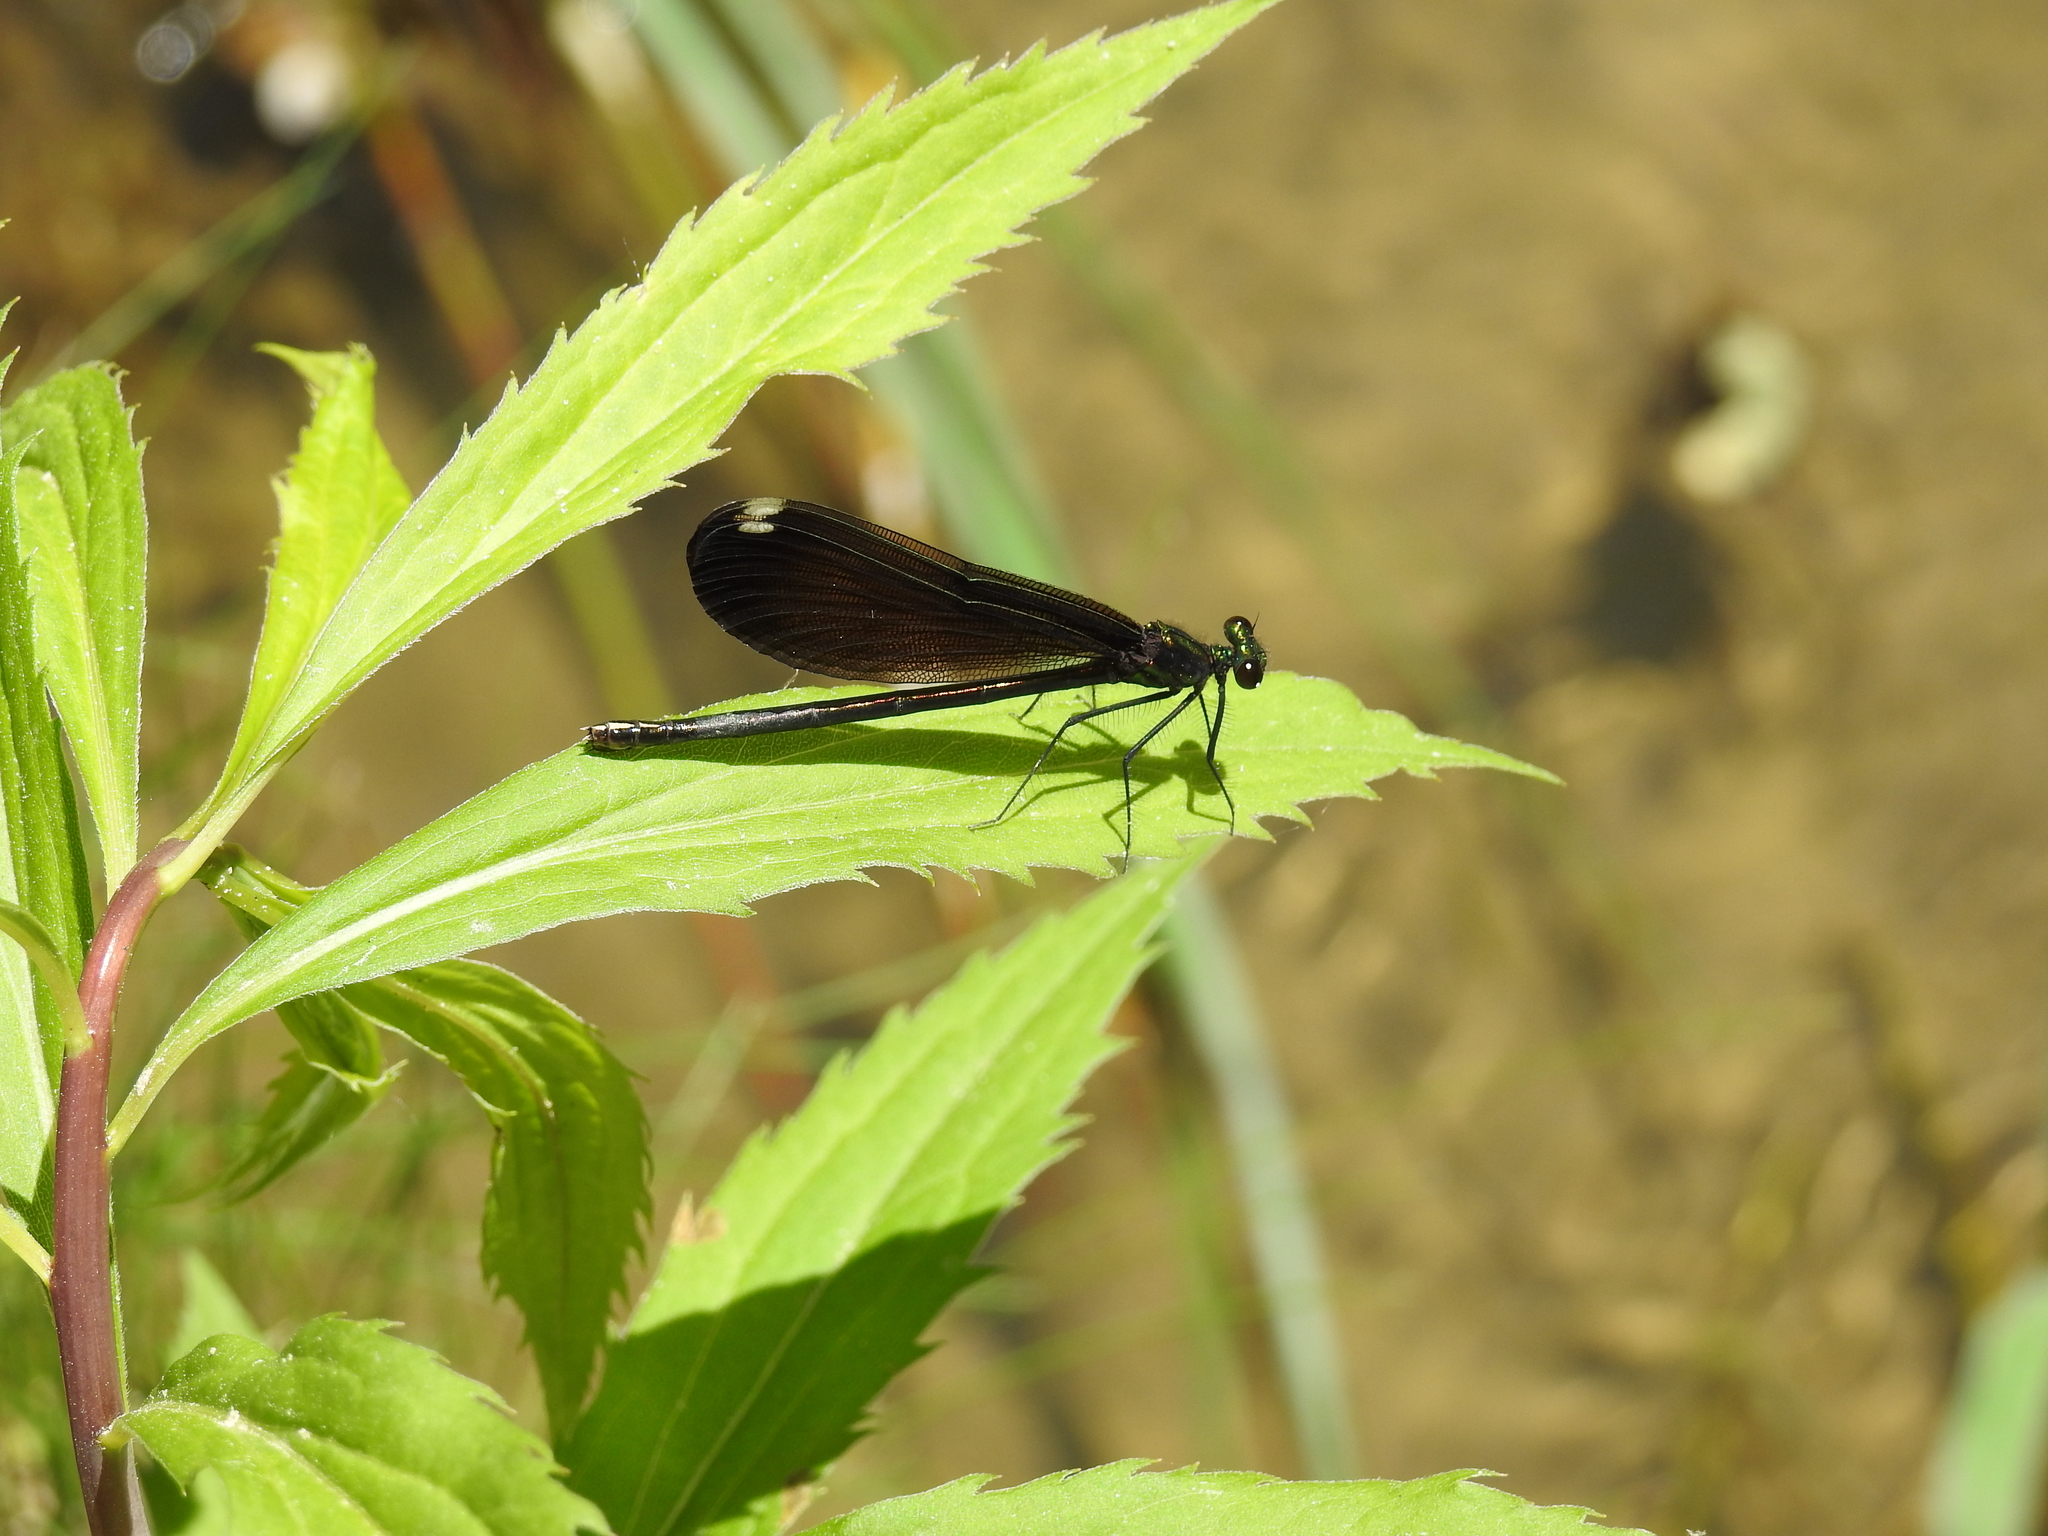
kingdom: Animalia
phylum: Arthropoda
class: Insecta
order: Odonata
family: Calopterygidae
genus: Calopteryx
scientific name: Calopteryx maculata
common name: Ebony jewelwing
